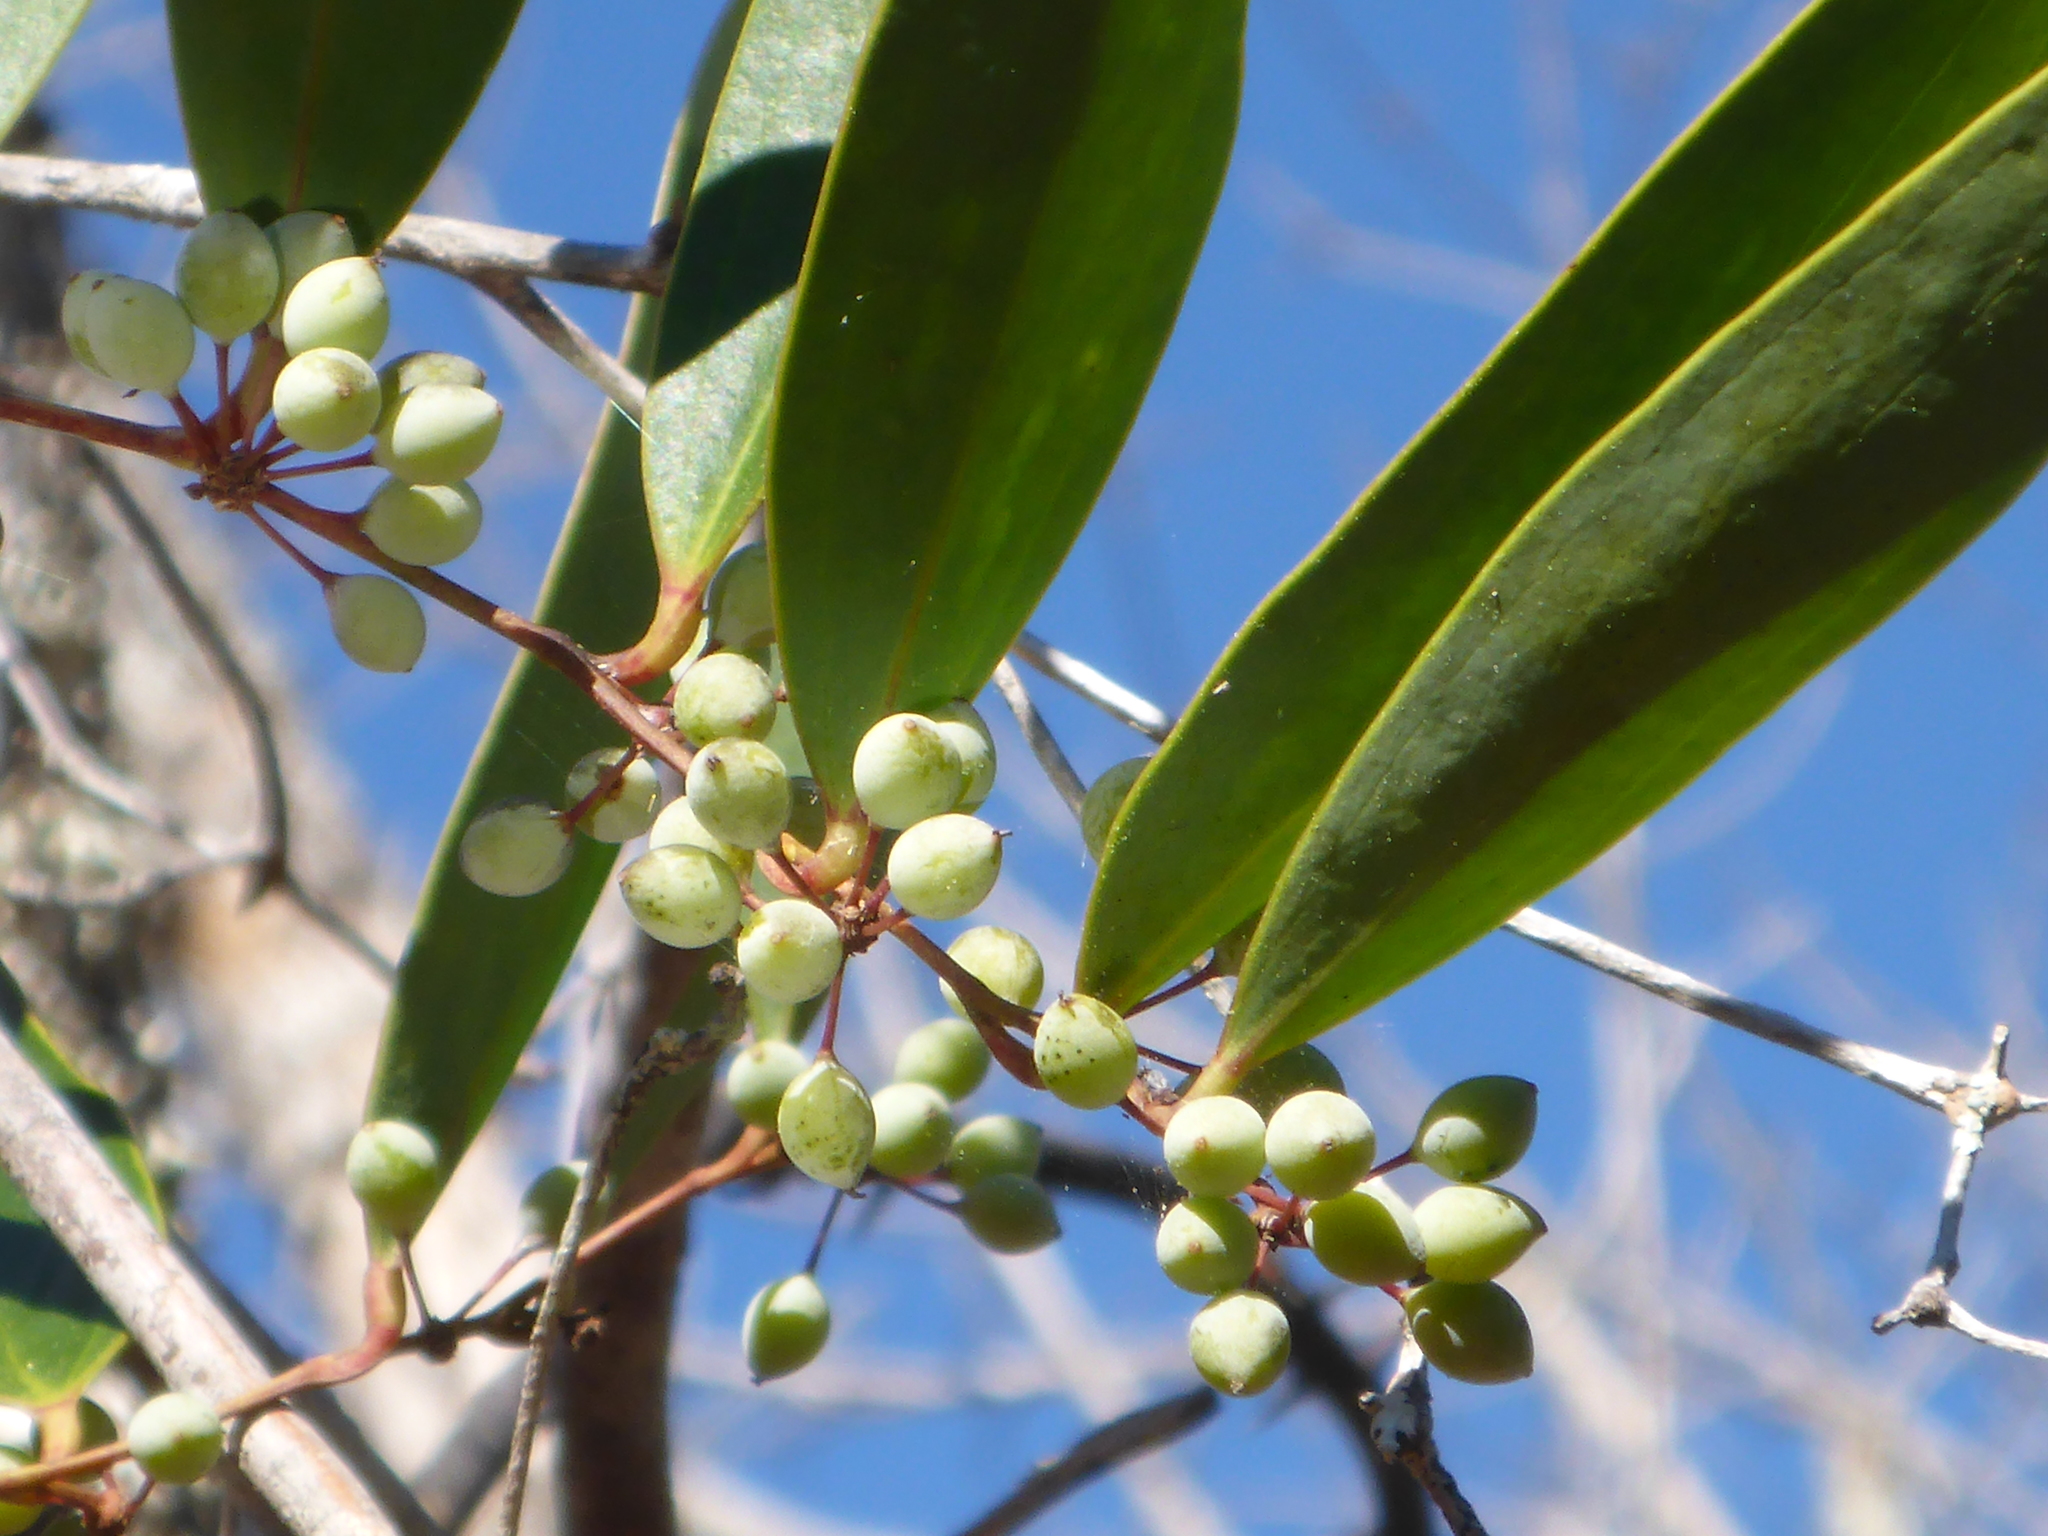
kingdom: Plantae
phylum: Tracheophyta
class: Liliopsida
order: Liliales
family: Smilacaceae
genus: Smilax
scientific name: Smilax laurifolia
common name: Bamboovine
